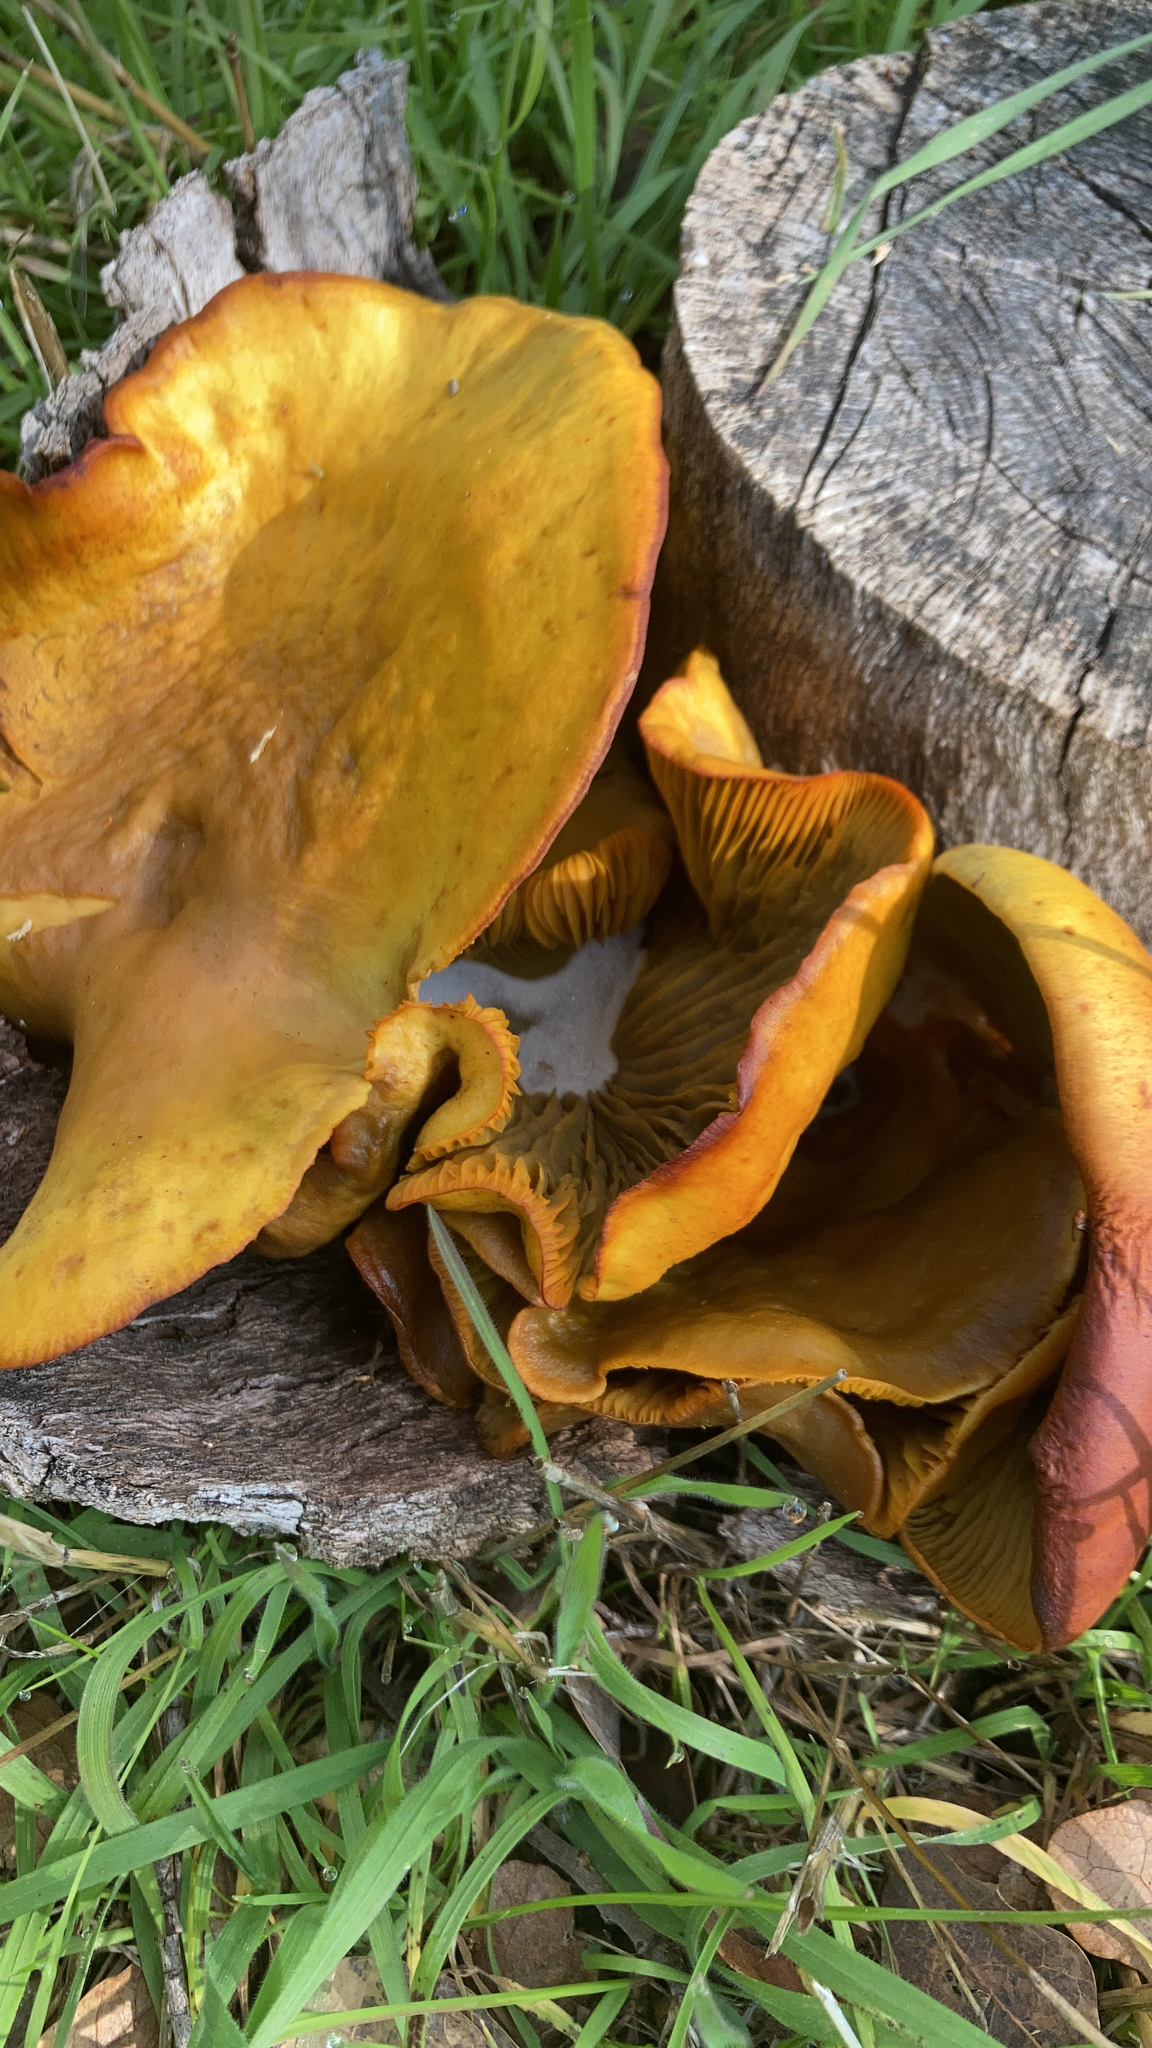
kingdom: Fungi
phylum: Basidiomycota
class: Agaricomycetes
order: Agaricales
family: Omphalotaceae
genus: Omphalotus
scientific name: Omphalotus olivascens
